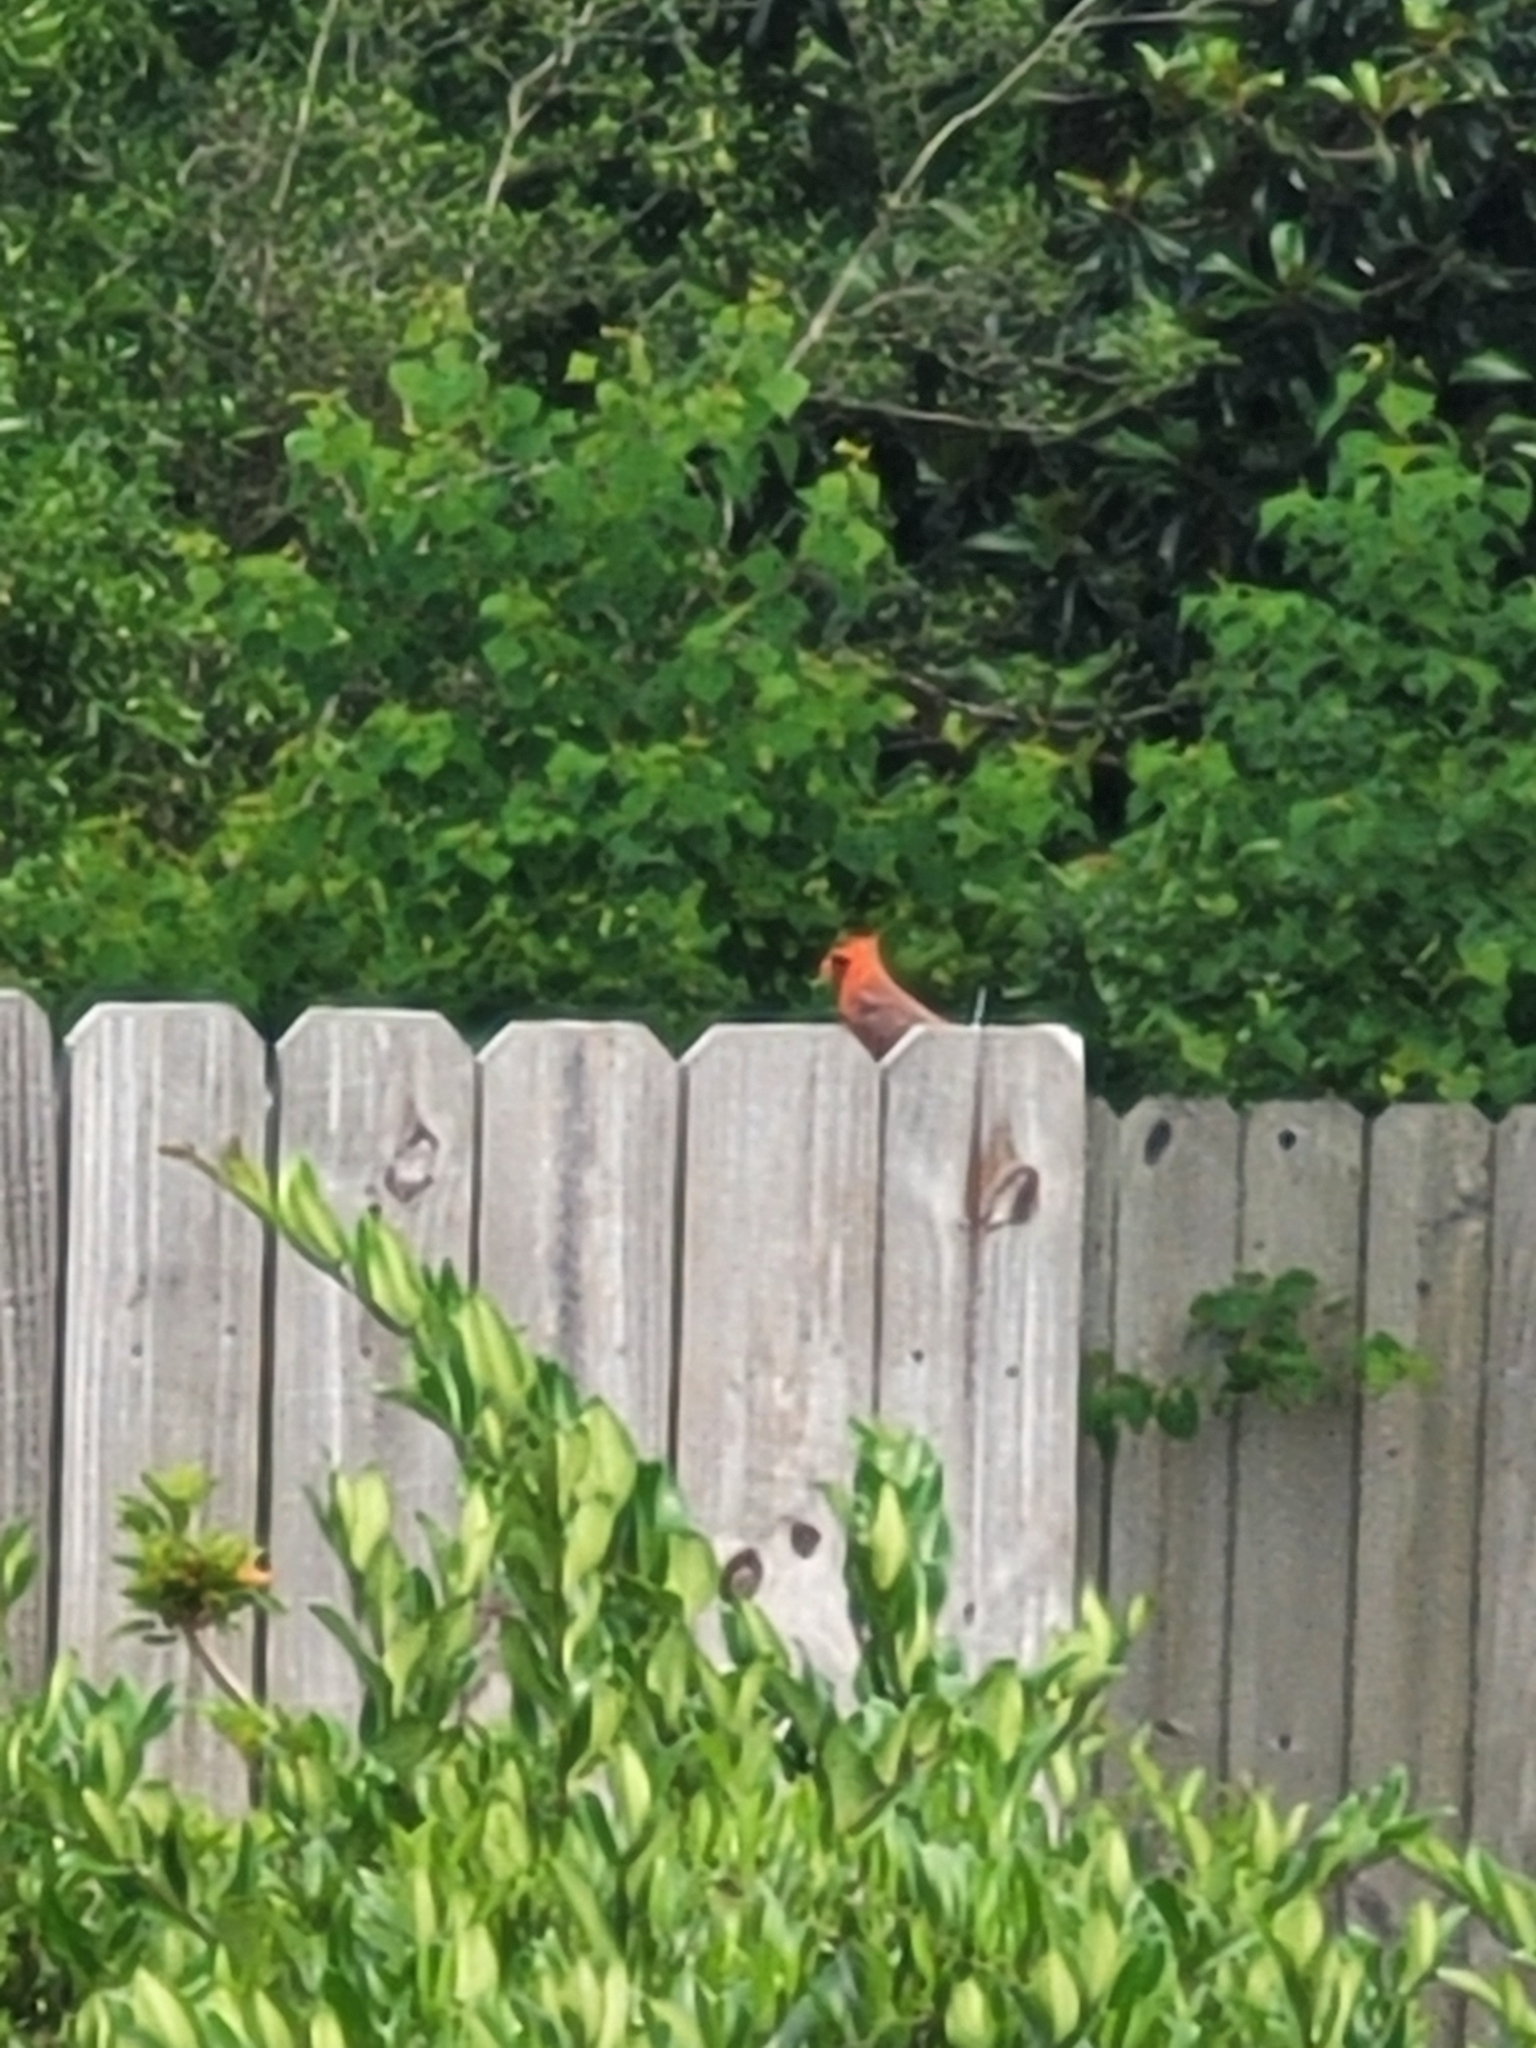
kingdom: Animalia
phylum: Chordata
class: Aves
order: Passeriformes
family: Cardinalidae
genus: Cardinalis
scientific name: Cardinalis cardinalis
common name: Northern cardinal
